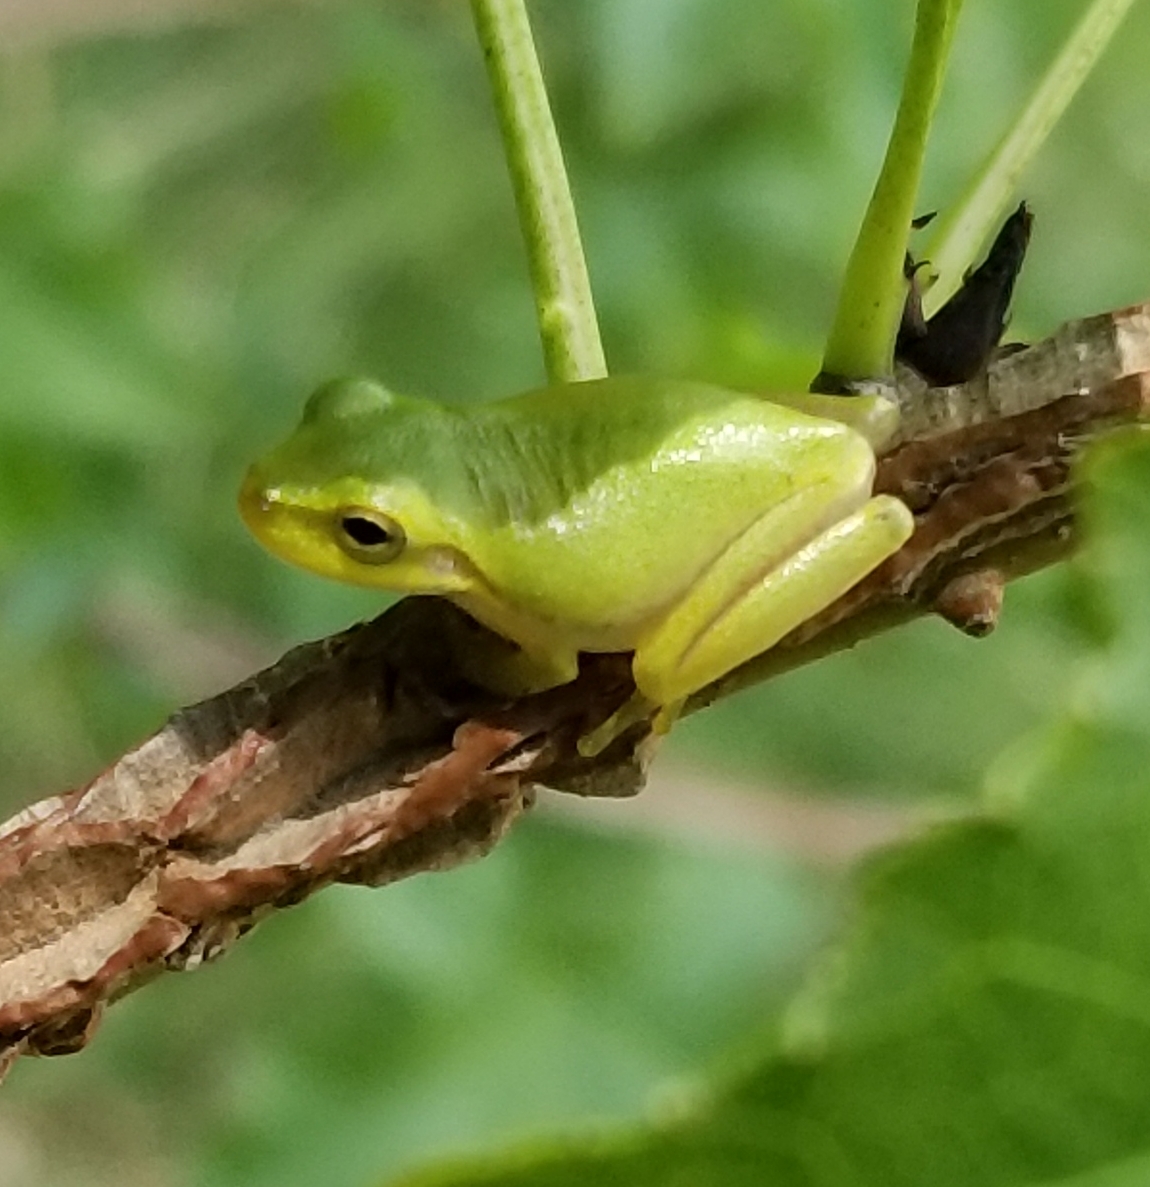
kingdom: Animalia
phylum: Chordata
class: Amphibia
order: Anura
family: Hylidae
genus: Dryophytes
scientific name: Dryophytes squirellus
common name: Squirrel treefrog
